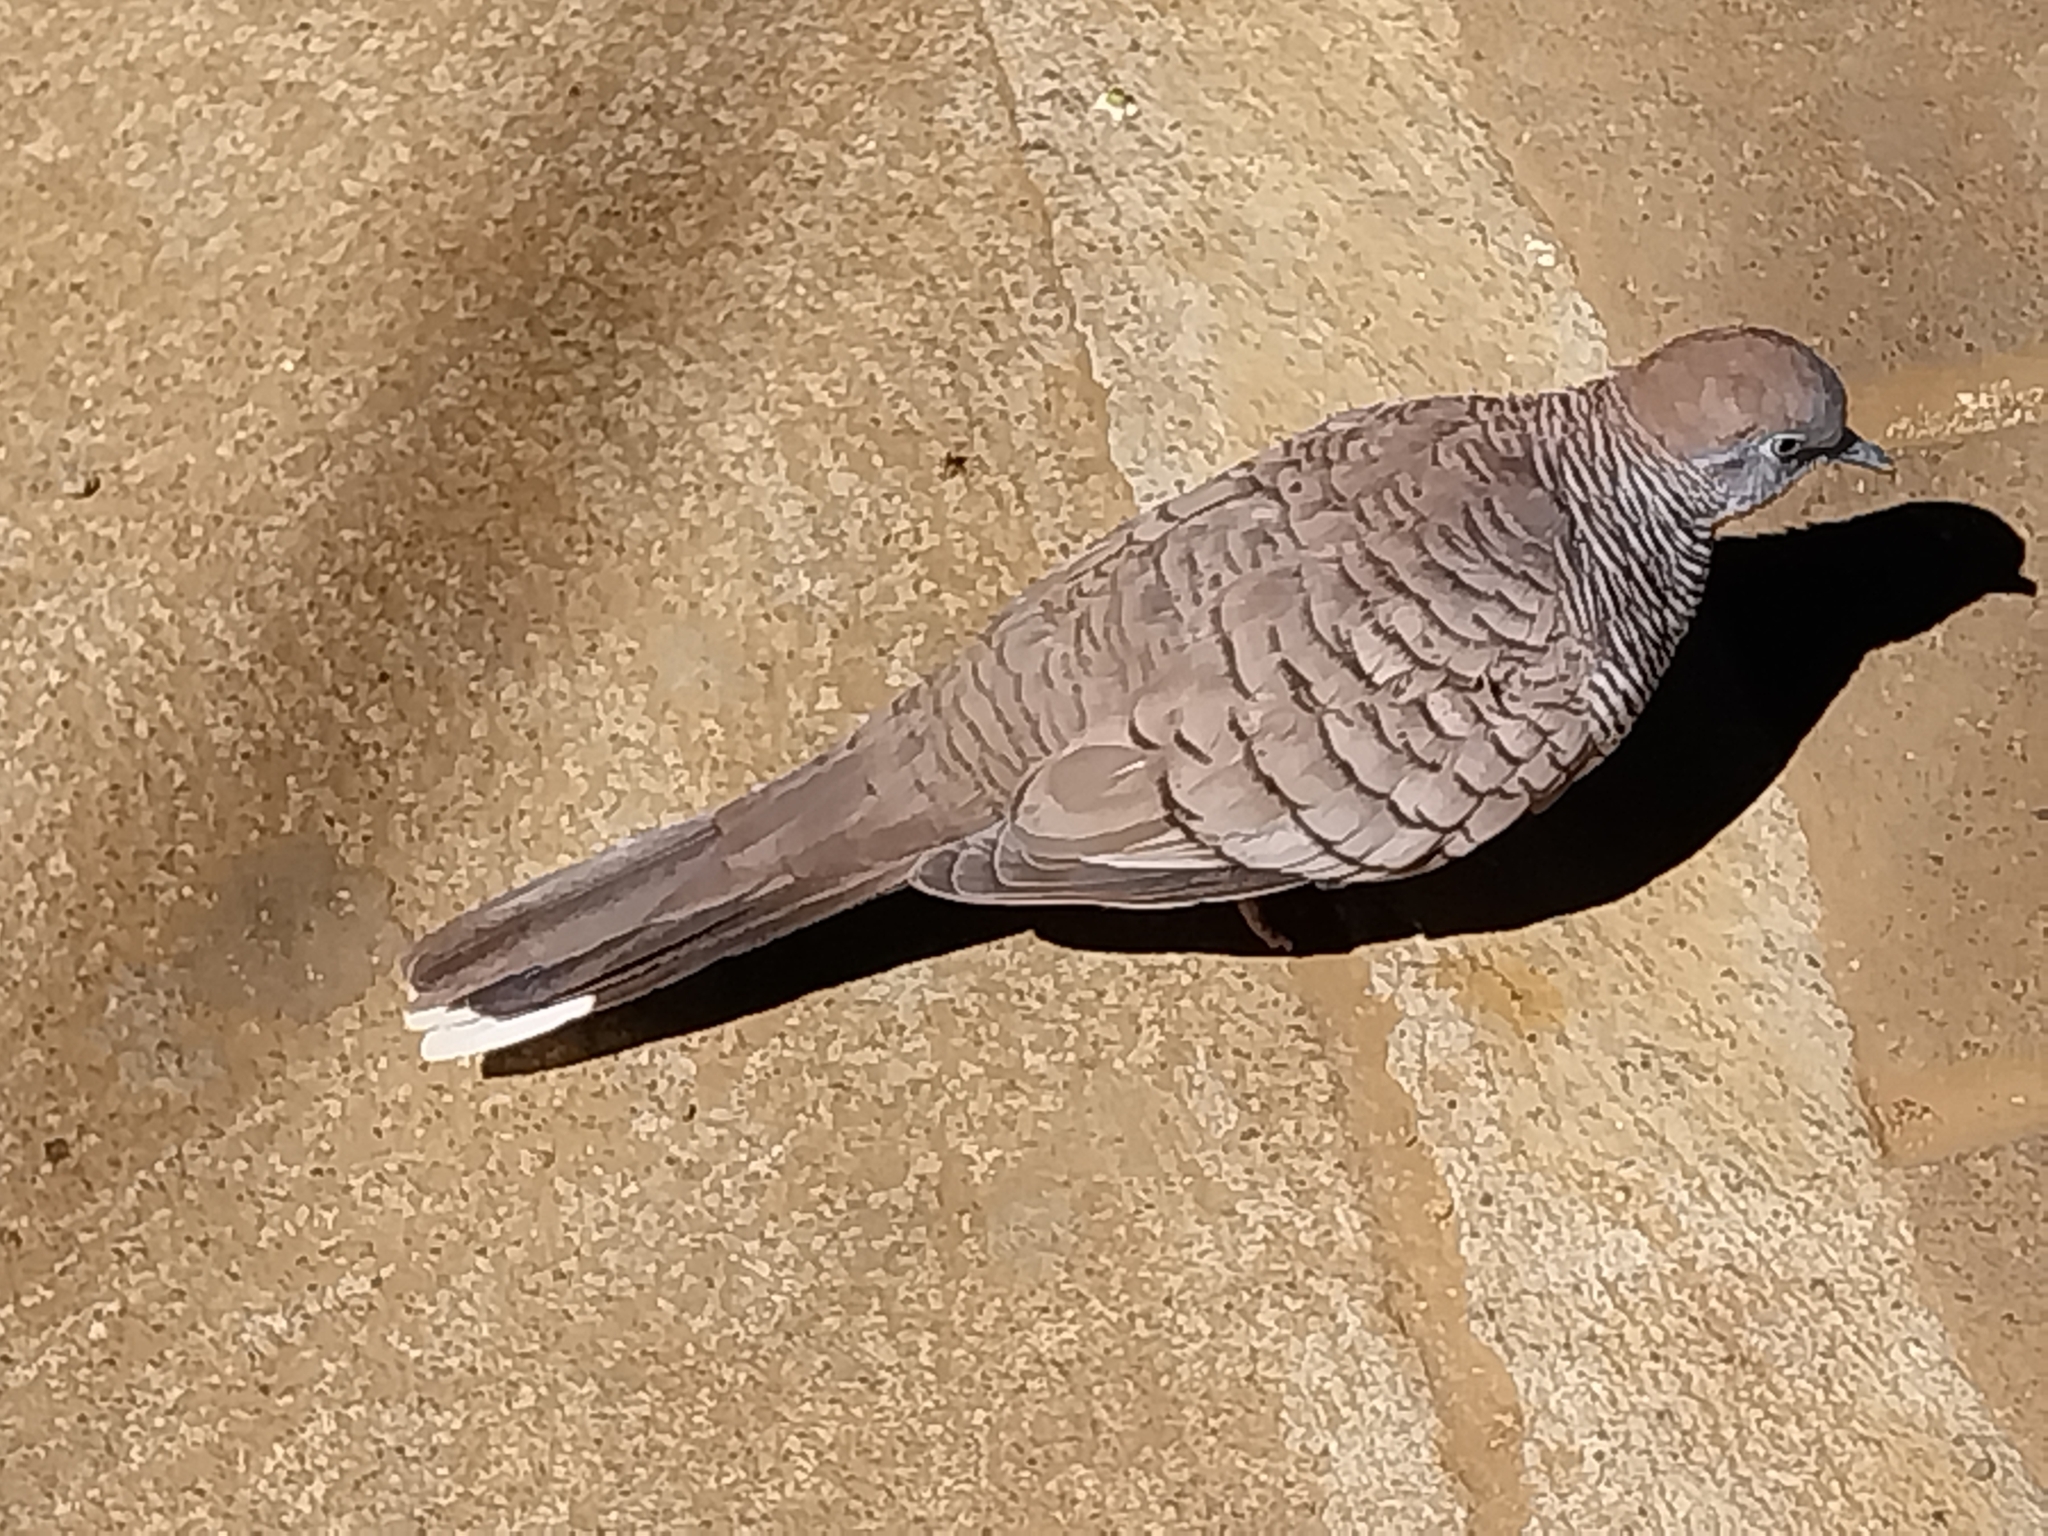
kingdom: Animalia
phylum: Chordata
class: Aves
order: Columbiformes
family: Columbidae
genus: Geopelia
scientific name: Geopelia striata
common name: Zebra dove
